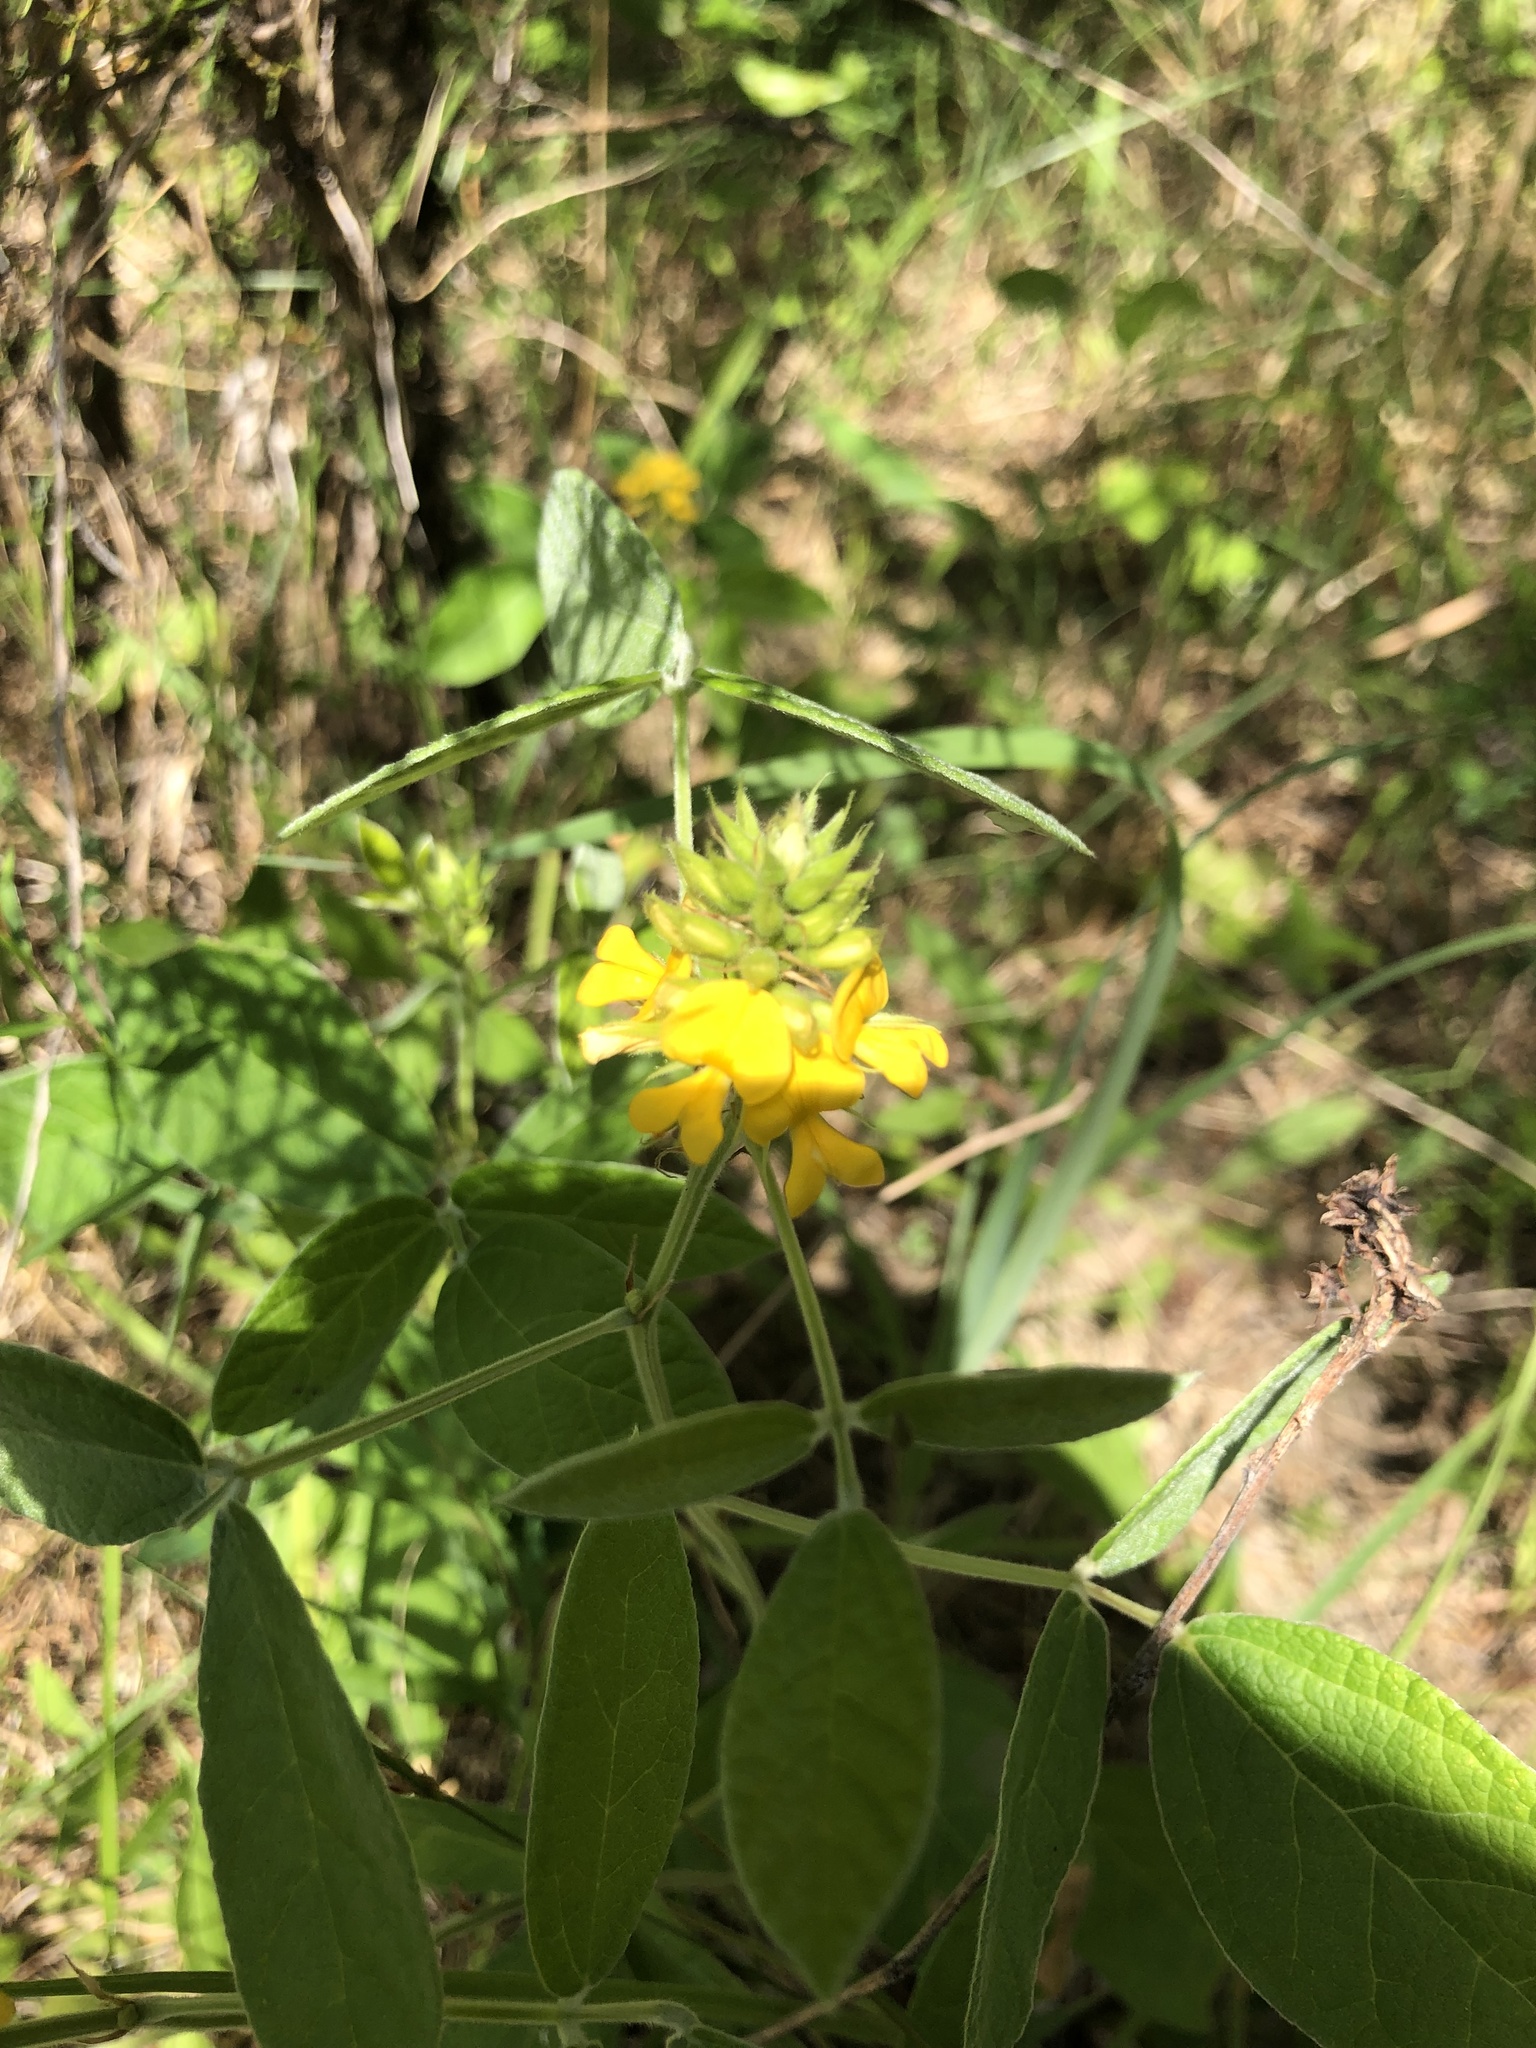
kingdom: Plantae
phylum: Tracheophyta
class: Magnoliopsida
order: Fabales
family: Fabaceae
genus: Rhynchosia
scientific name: Rhynchosia tomentosa
